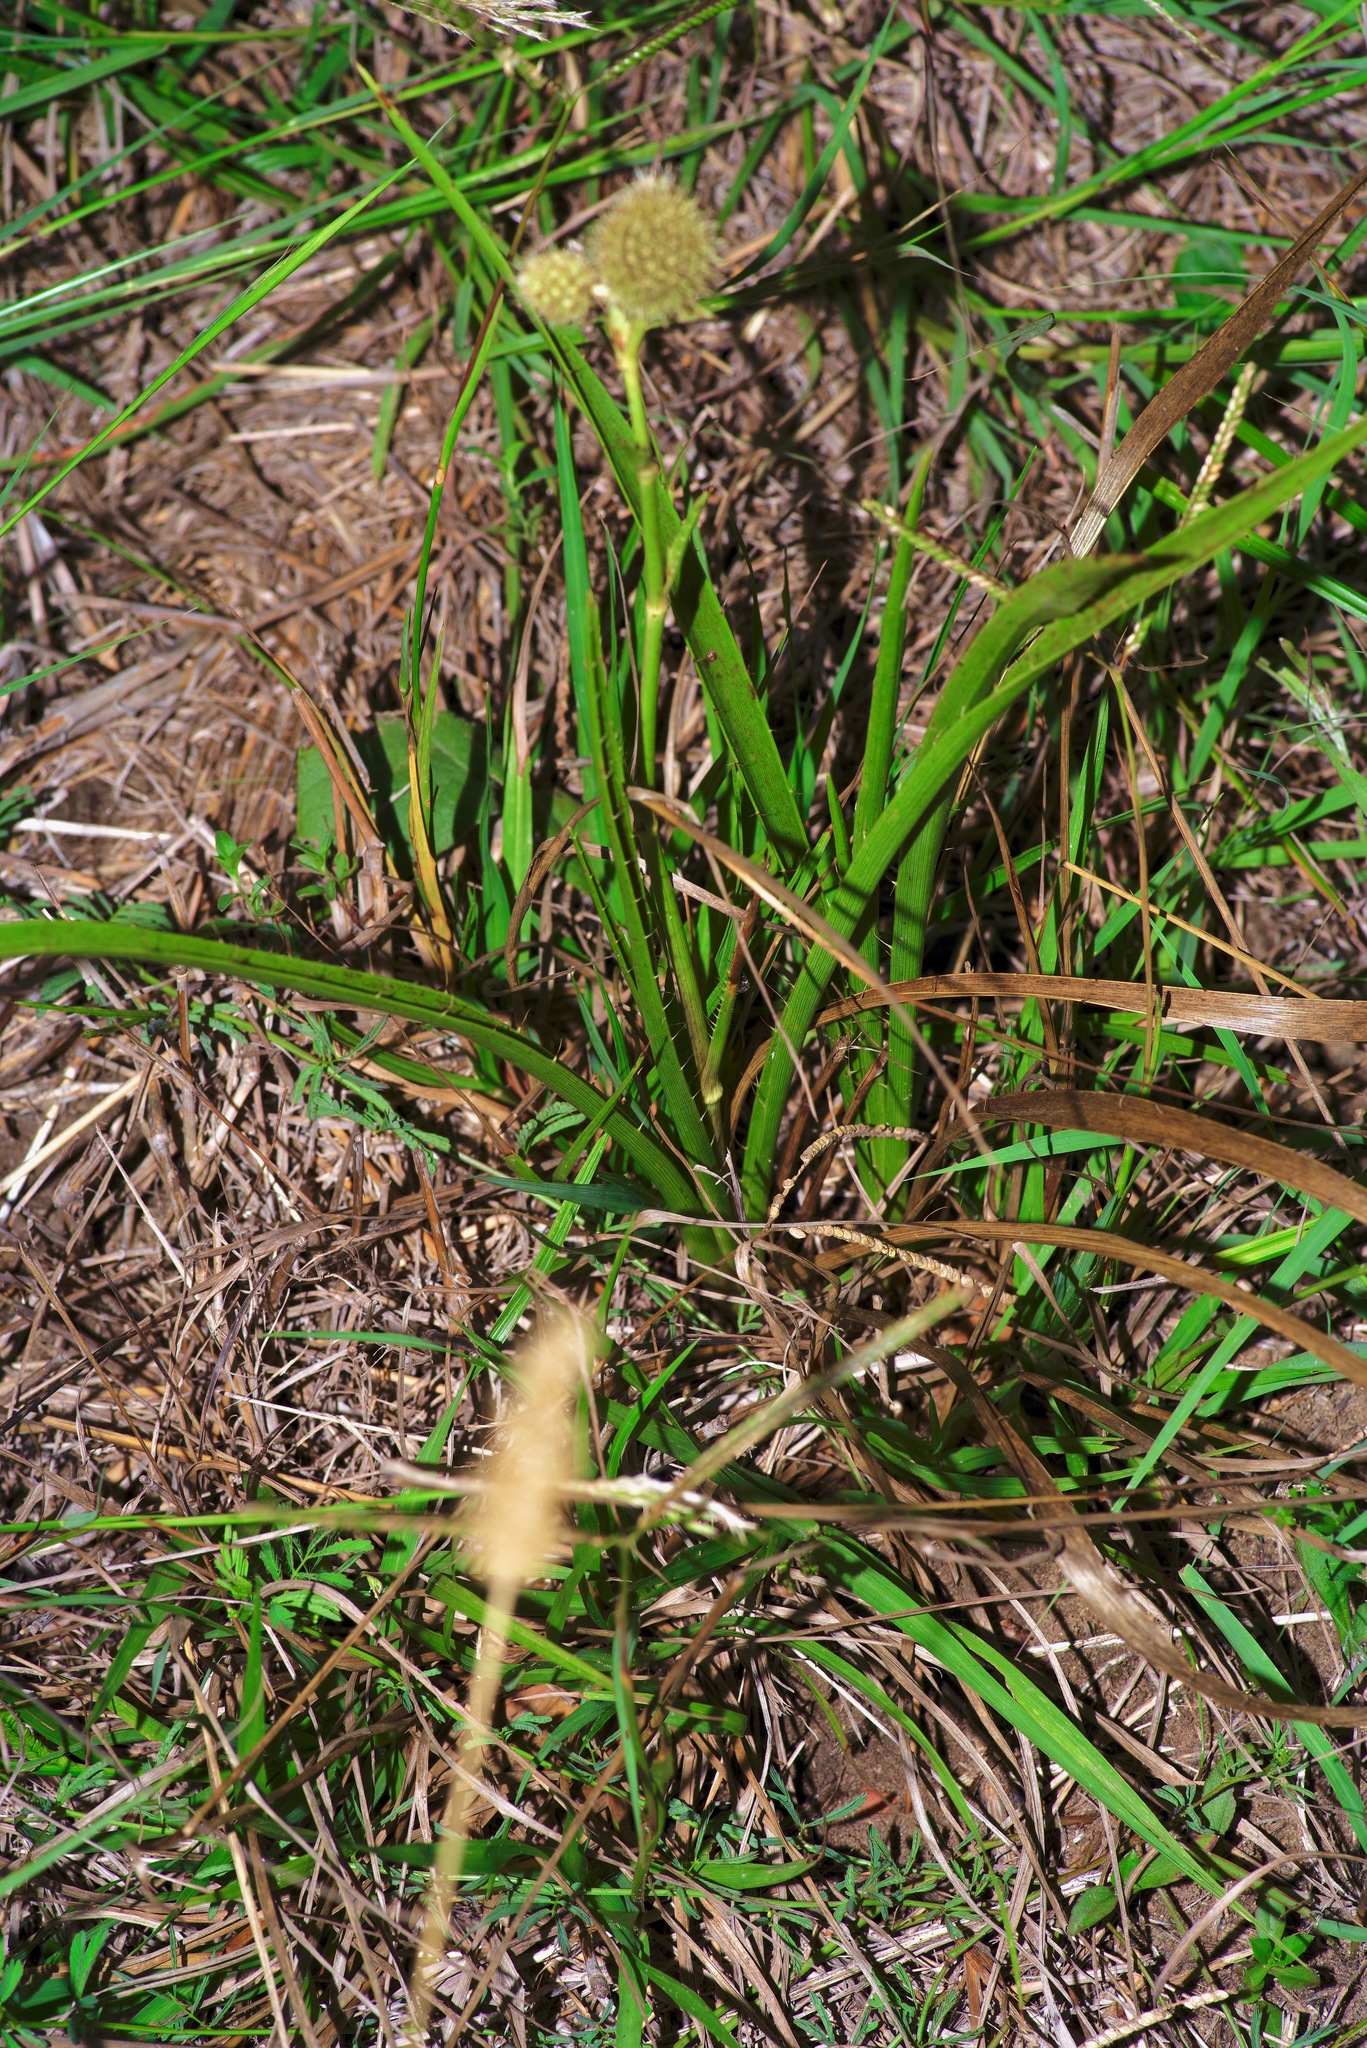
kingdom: Plantae
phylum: Tracheophyta
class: Magnoliopsida
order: Apiales
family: Apiaceae
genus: Eryngium
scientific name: Eryngium yuccifolium
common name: Button eryngo
